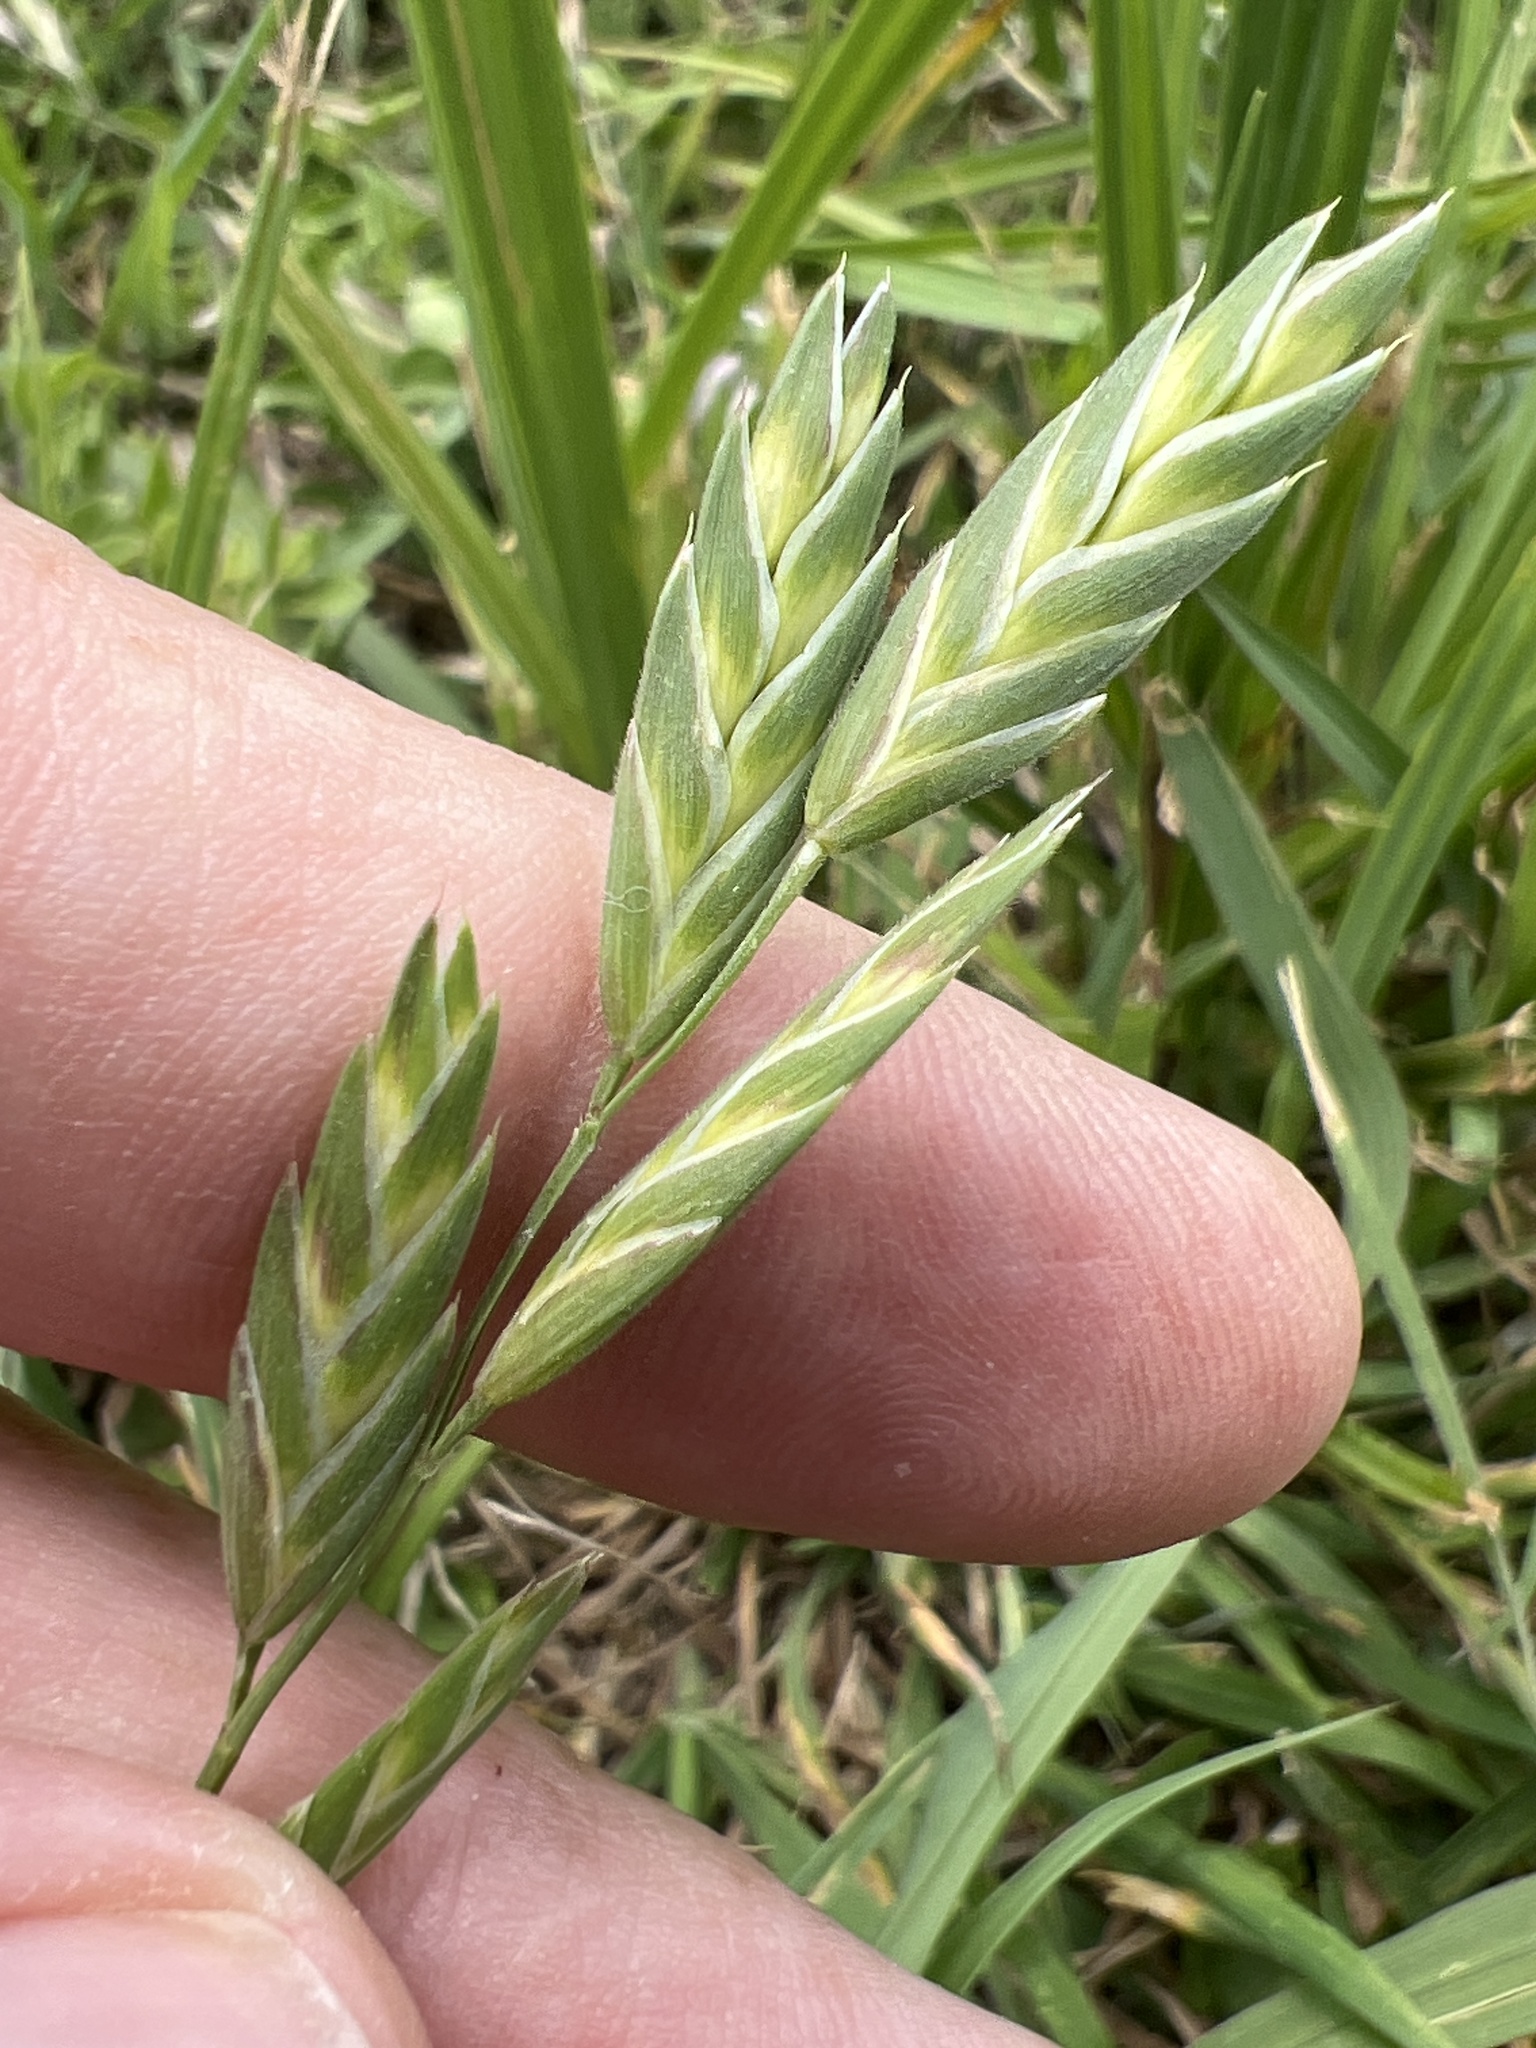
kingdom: Plantae
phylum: Tracheophyta
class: Liliopsida
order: Poales
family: Poaceae
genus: Bromus
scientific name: Bromus catharticus
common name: Rescuegrass
